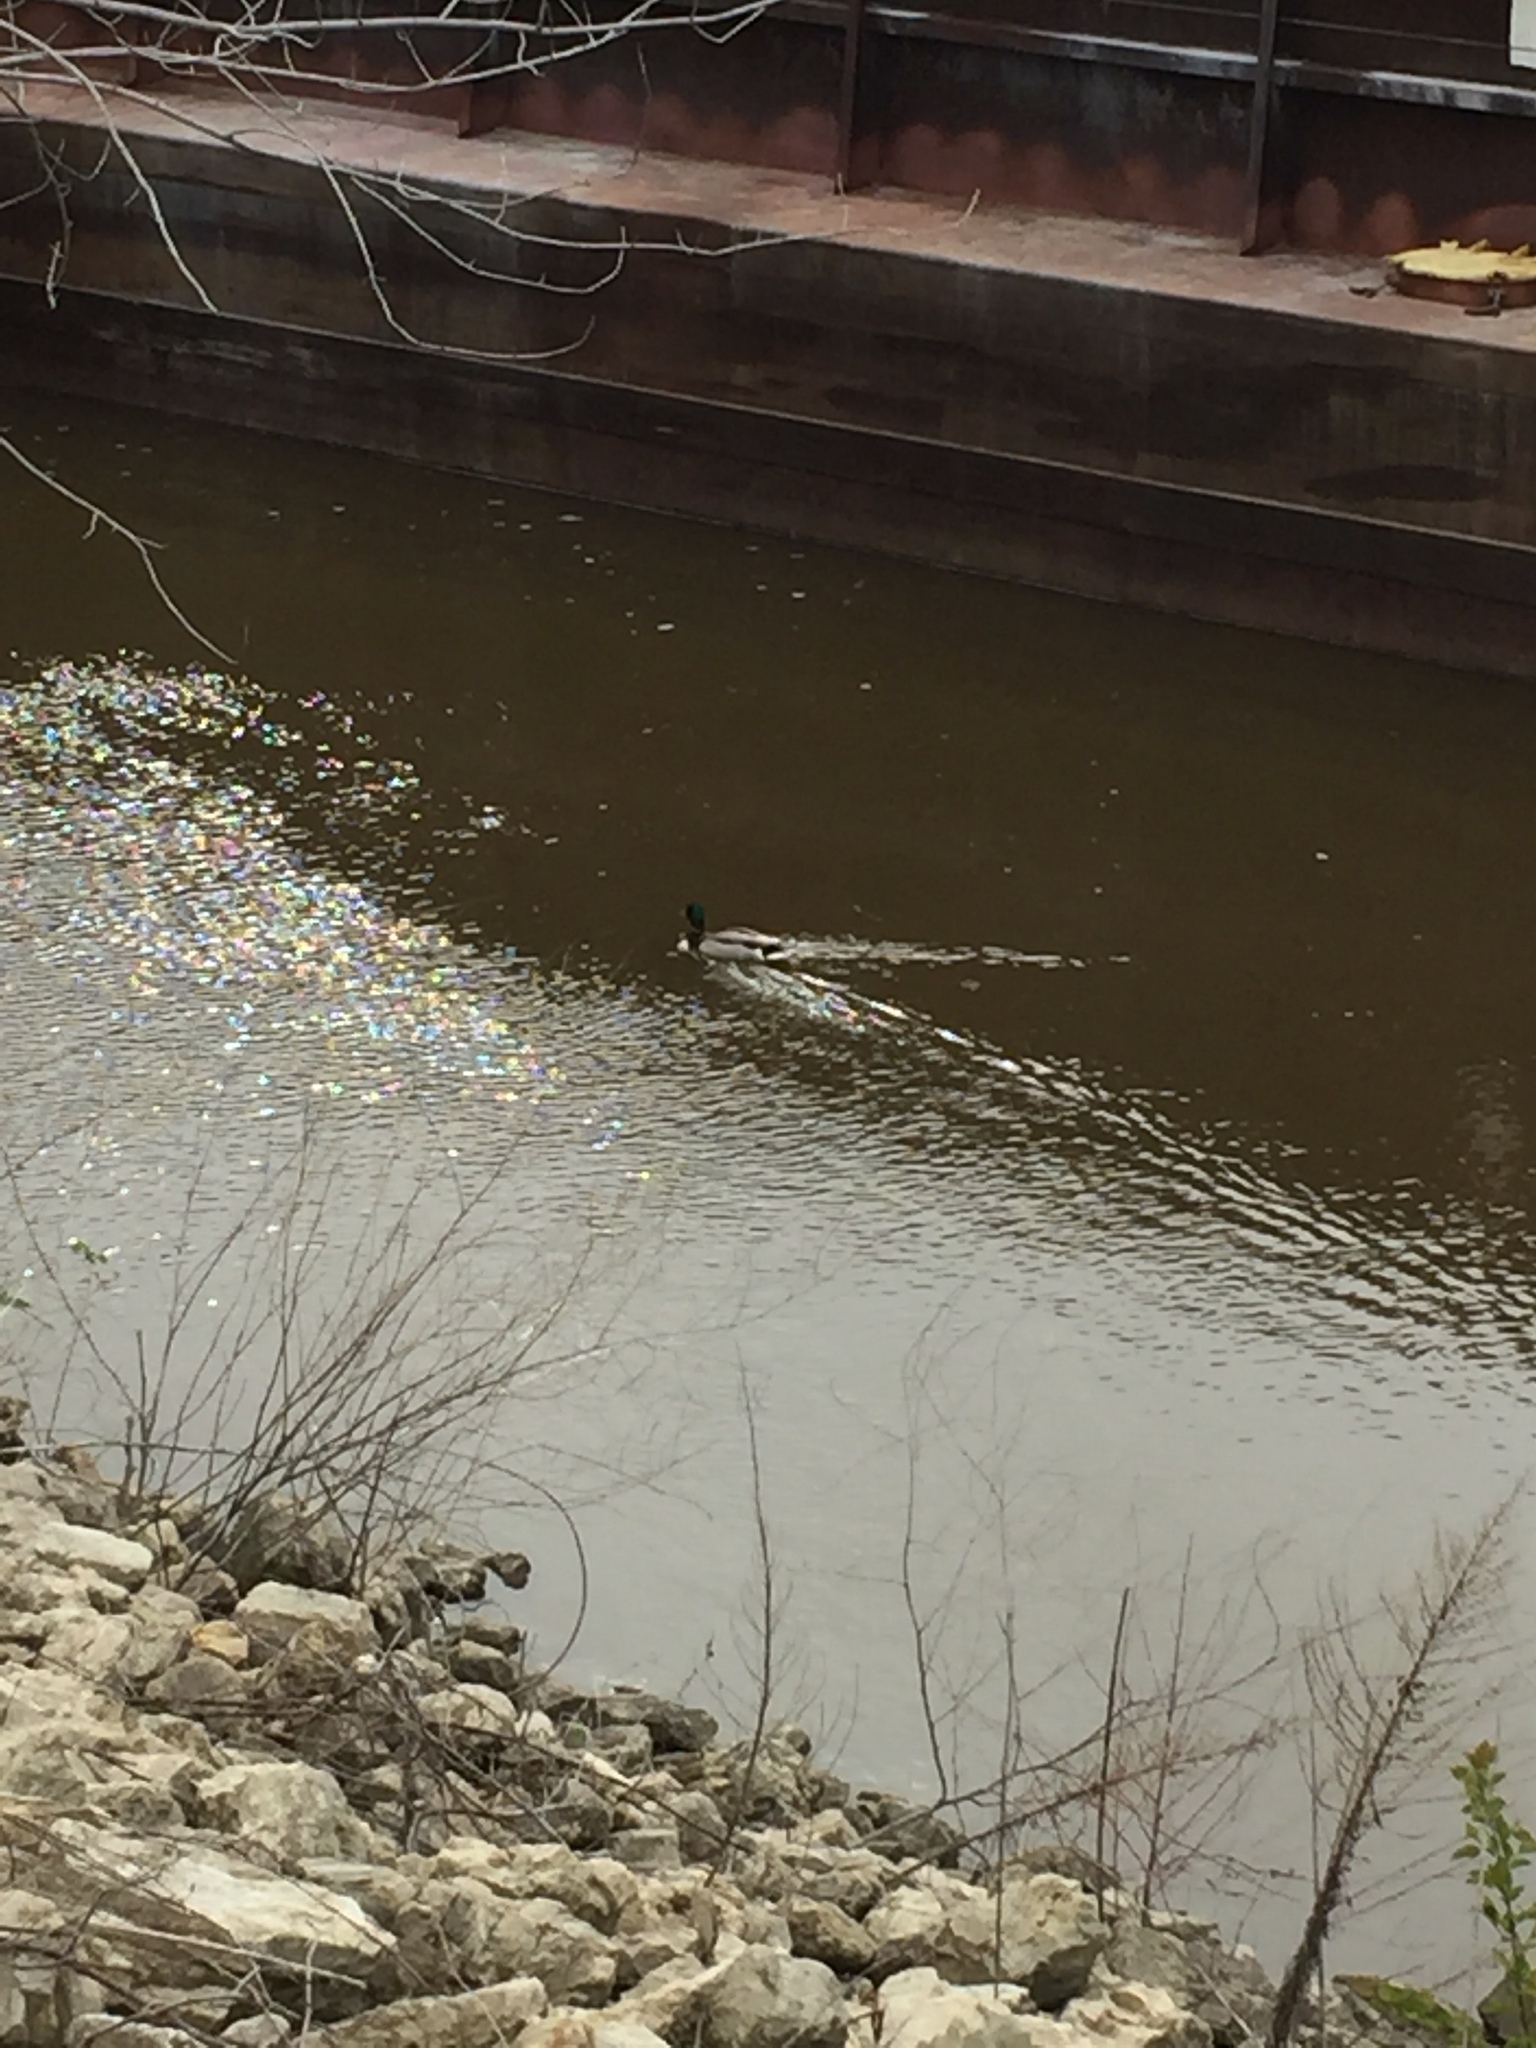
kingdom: Animalia
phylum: Chordata
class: Aves
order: Anseriformes
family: Anatidae
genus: Anas
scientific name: Anas platyrhynchos
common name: Mallard
